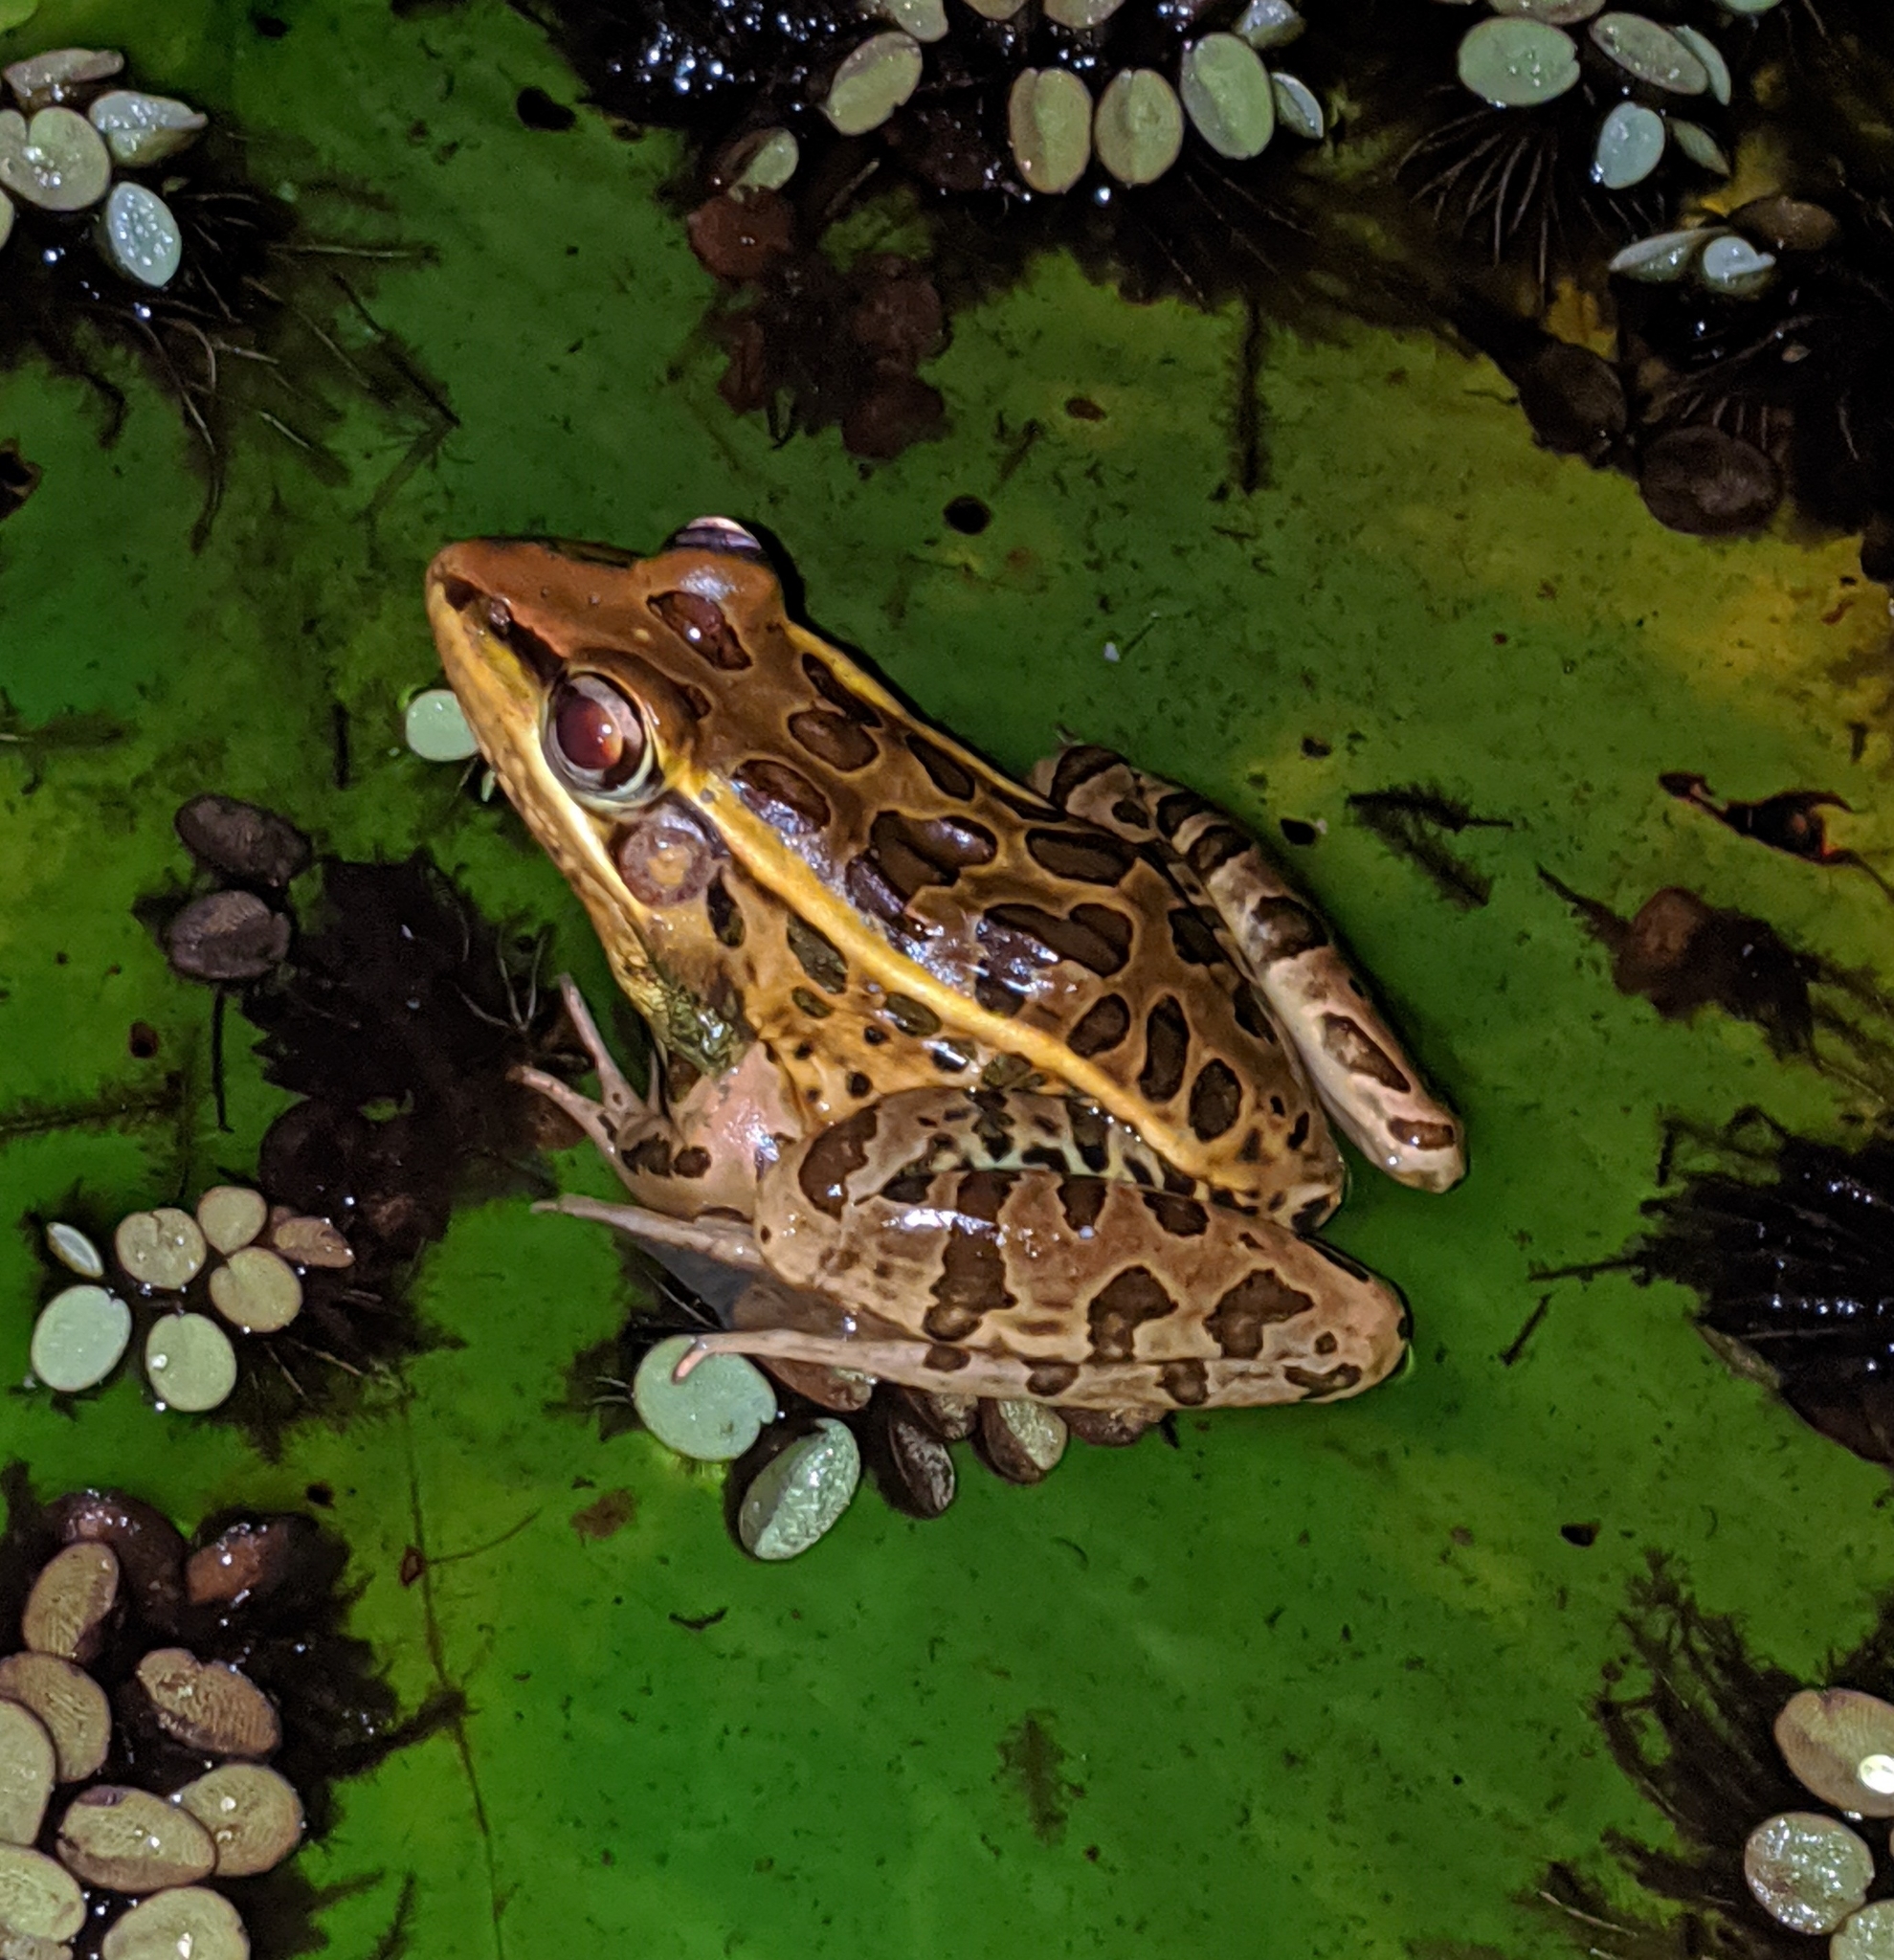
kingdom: Animalia
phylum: Chordata
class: Amphibia
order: Anura
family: Ranidae
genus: Lithobates
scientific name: Lithobates forreri
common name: Forrer's grass frog
